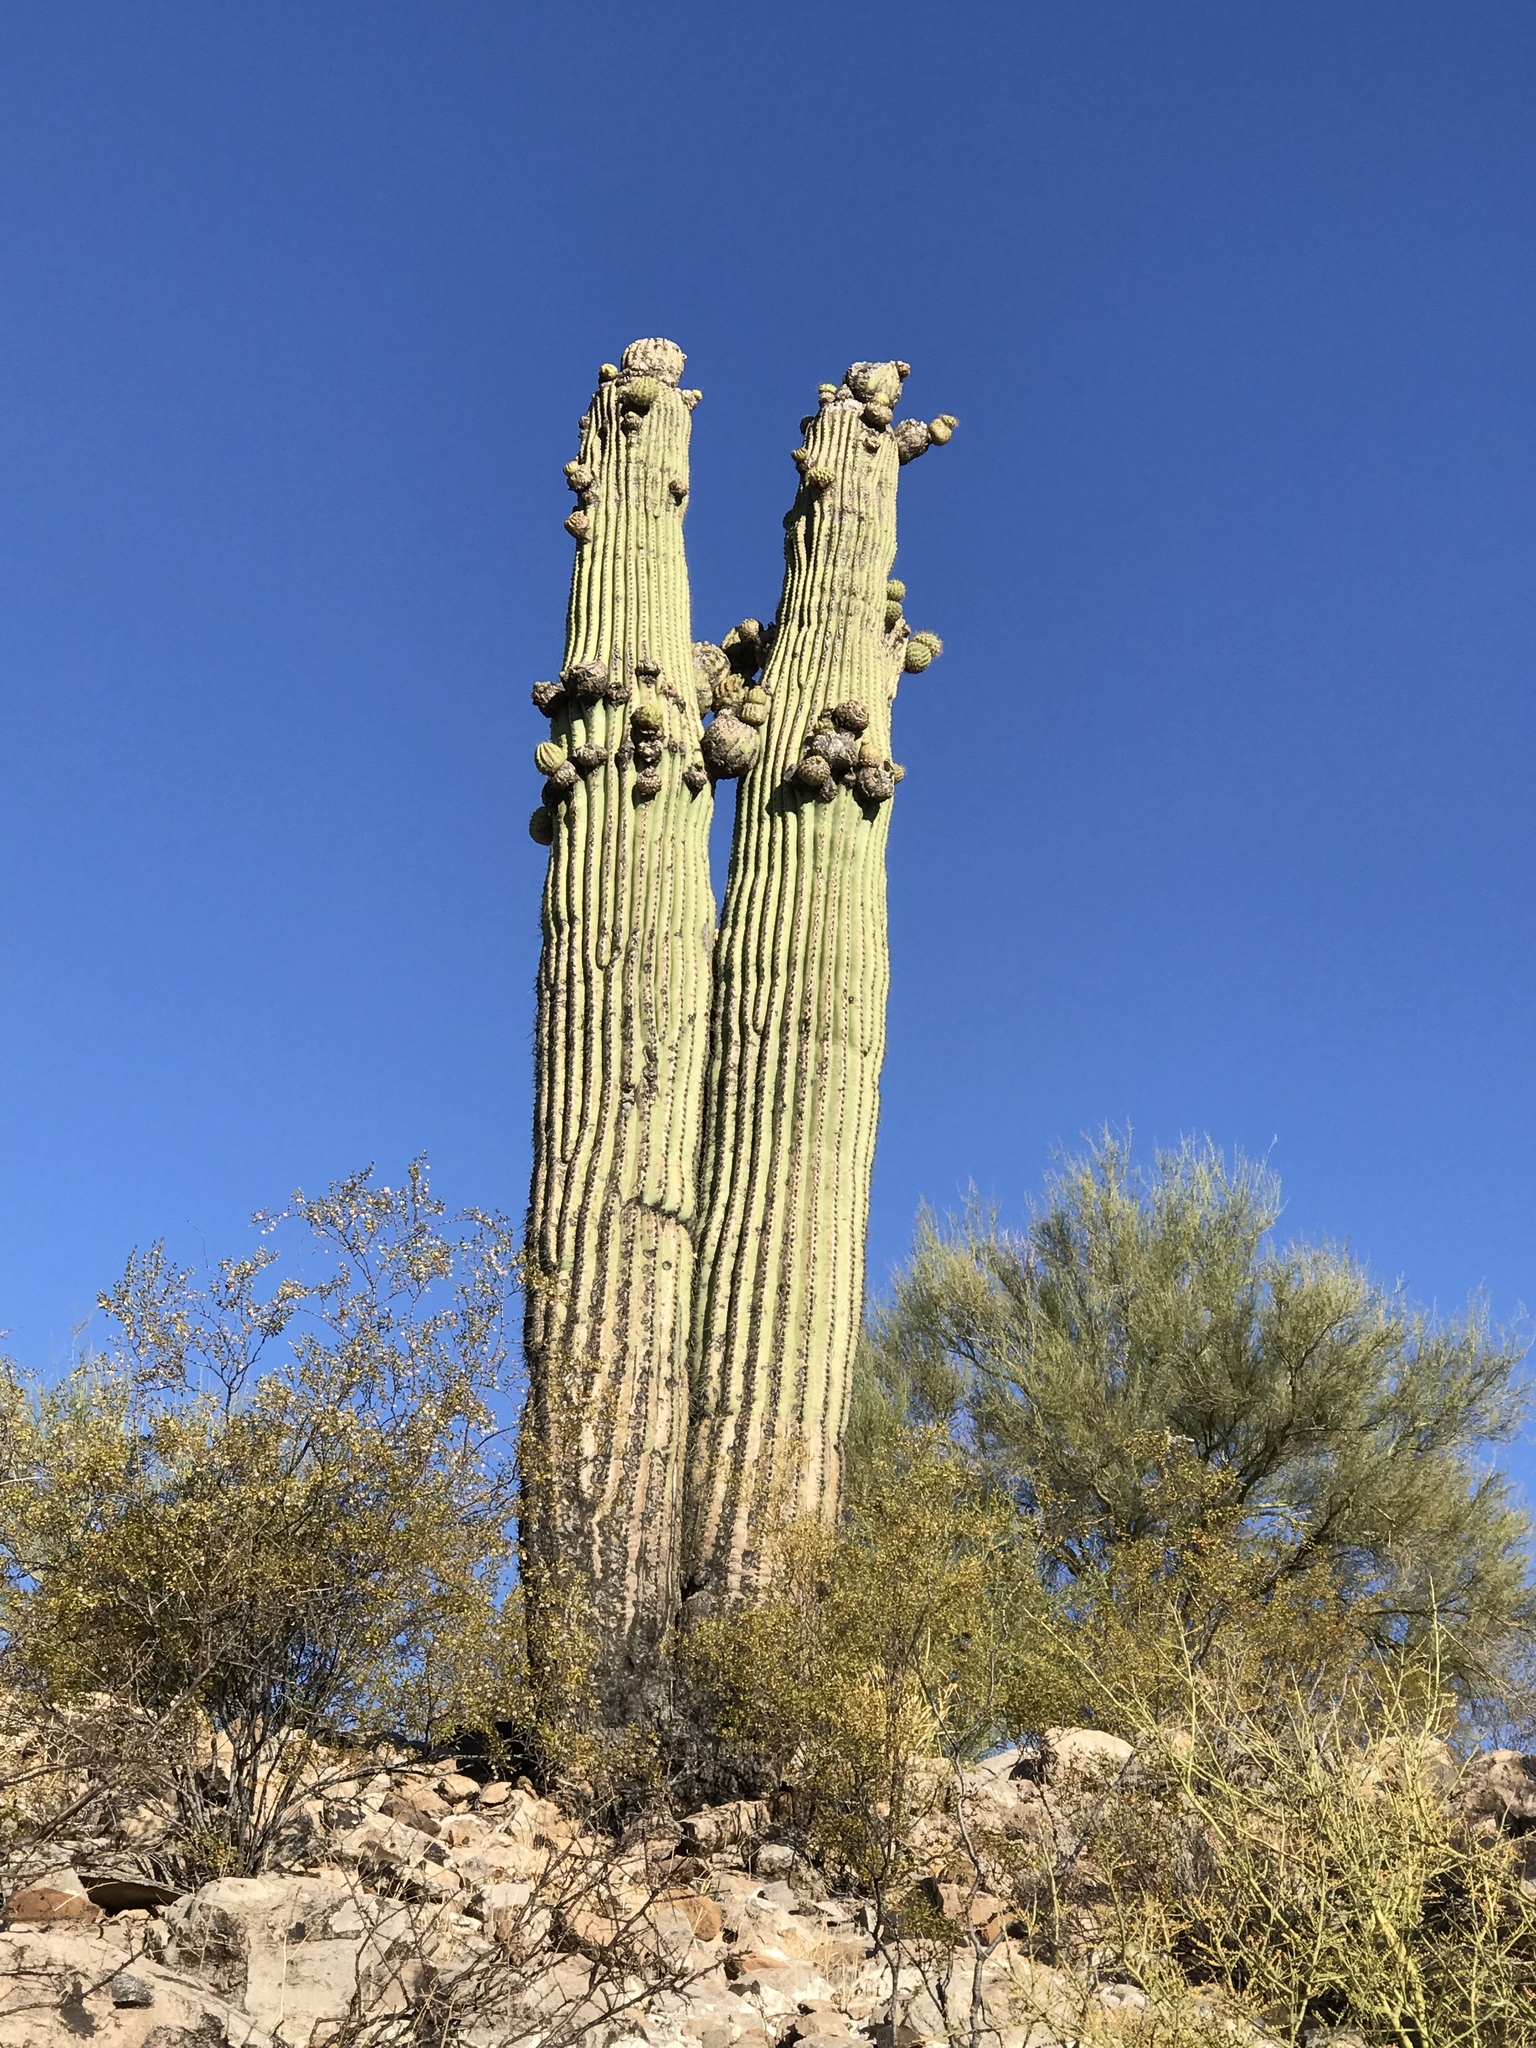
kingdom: Plantae
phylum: Tracheophyta
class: Magnoliopsida
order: Caryophyllales
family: Cactaceae
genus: Carnegiea
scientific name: Carnegiea gigantea
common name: Saguaro
